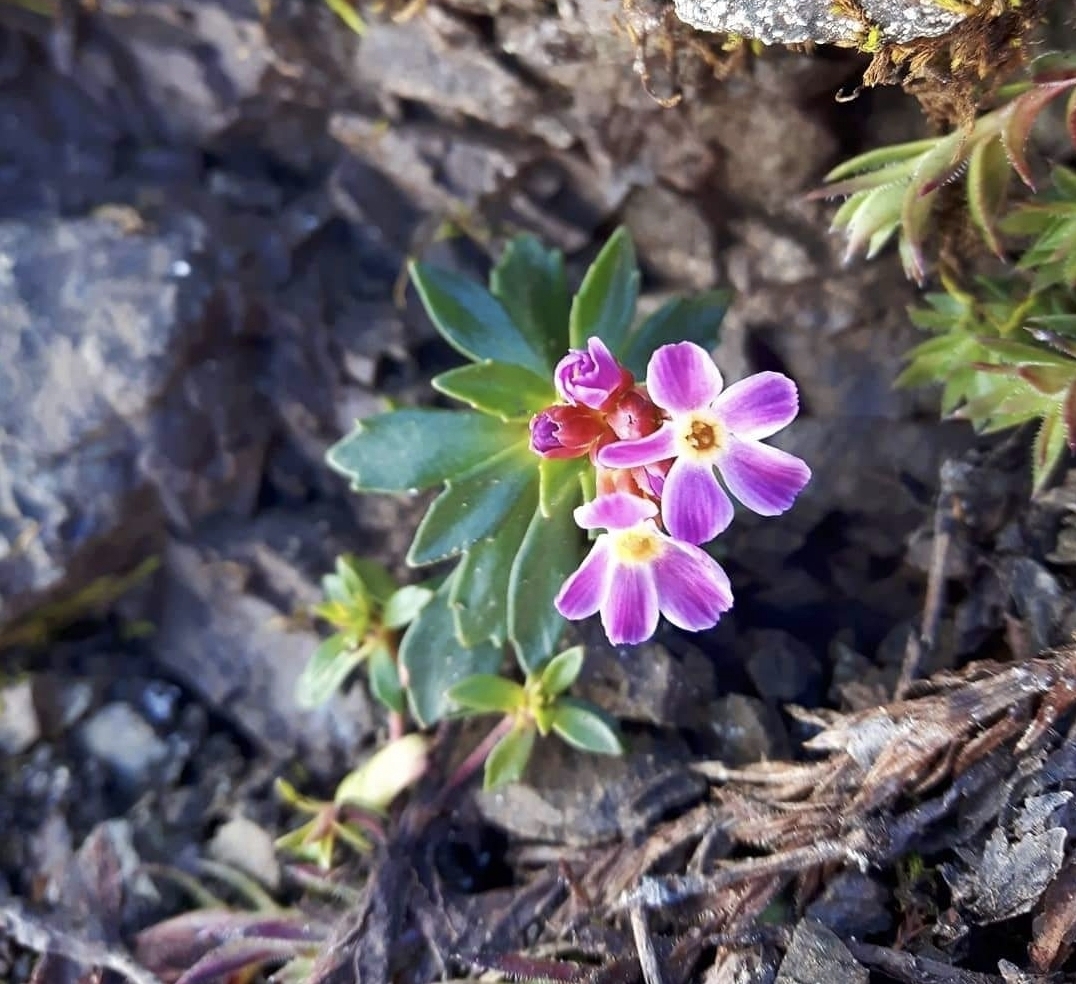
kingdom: Plantae
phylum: Tracheophyta
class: Magnoliopsida
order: Ericales
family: Primulaceae
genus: Androsace
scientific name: Androsace laevigata
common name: Cliff dwarf-primrose
